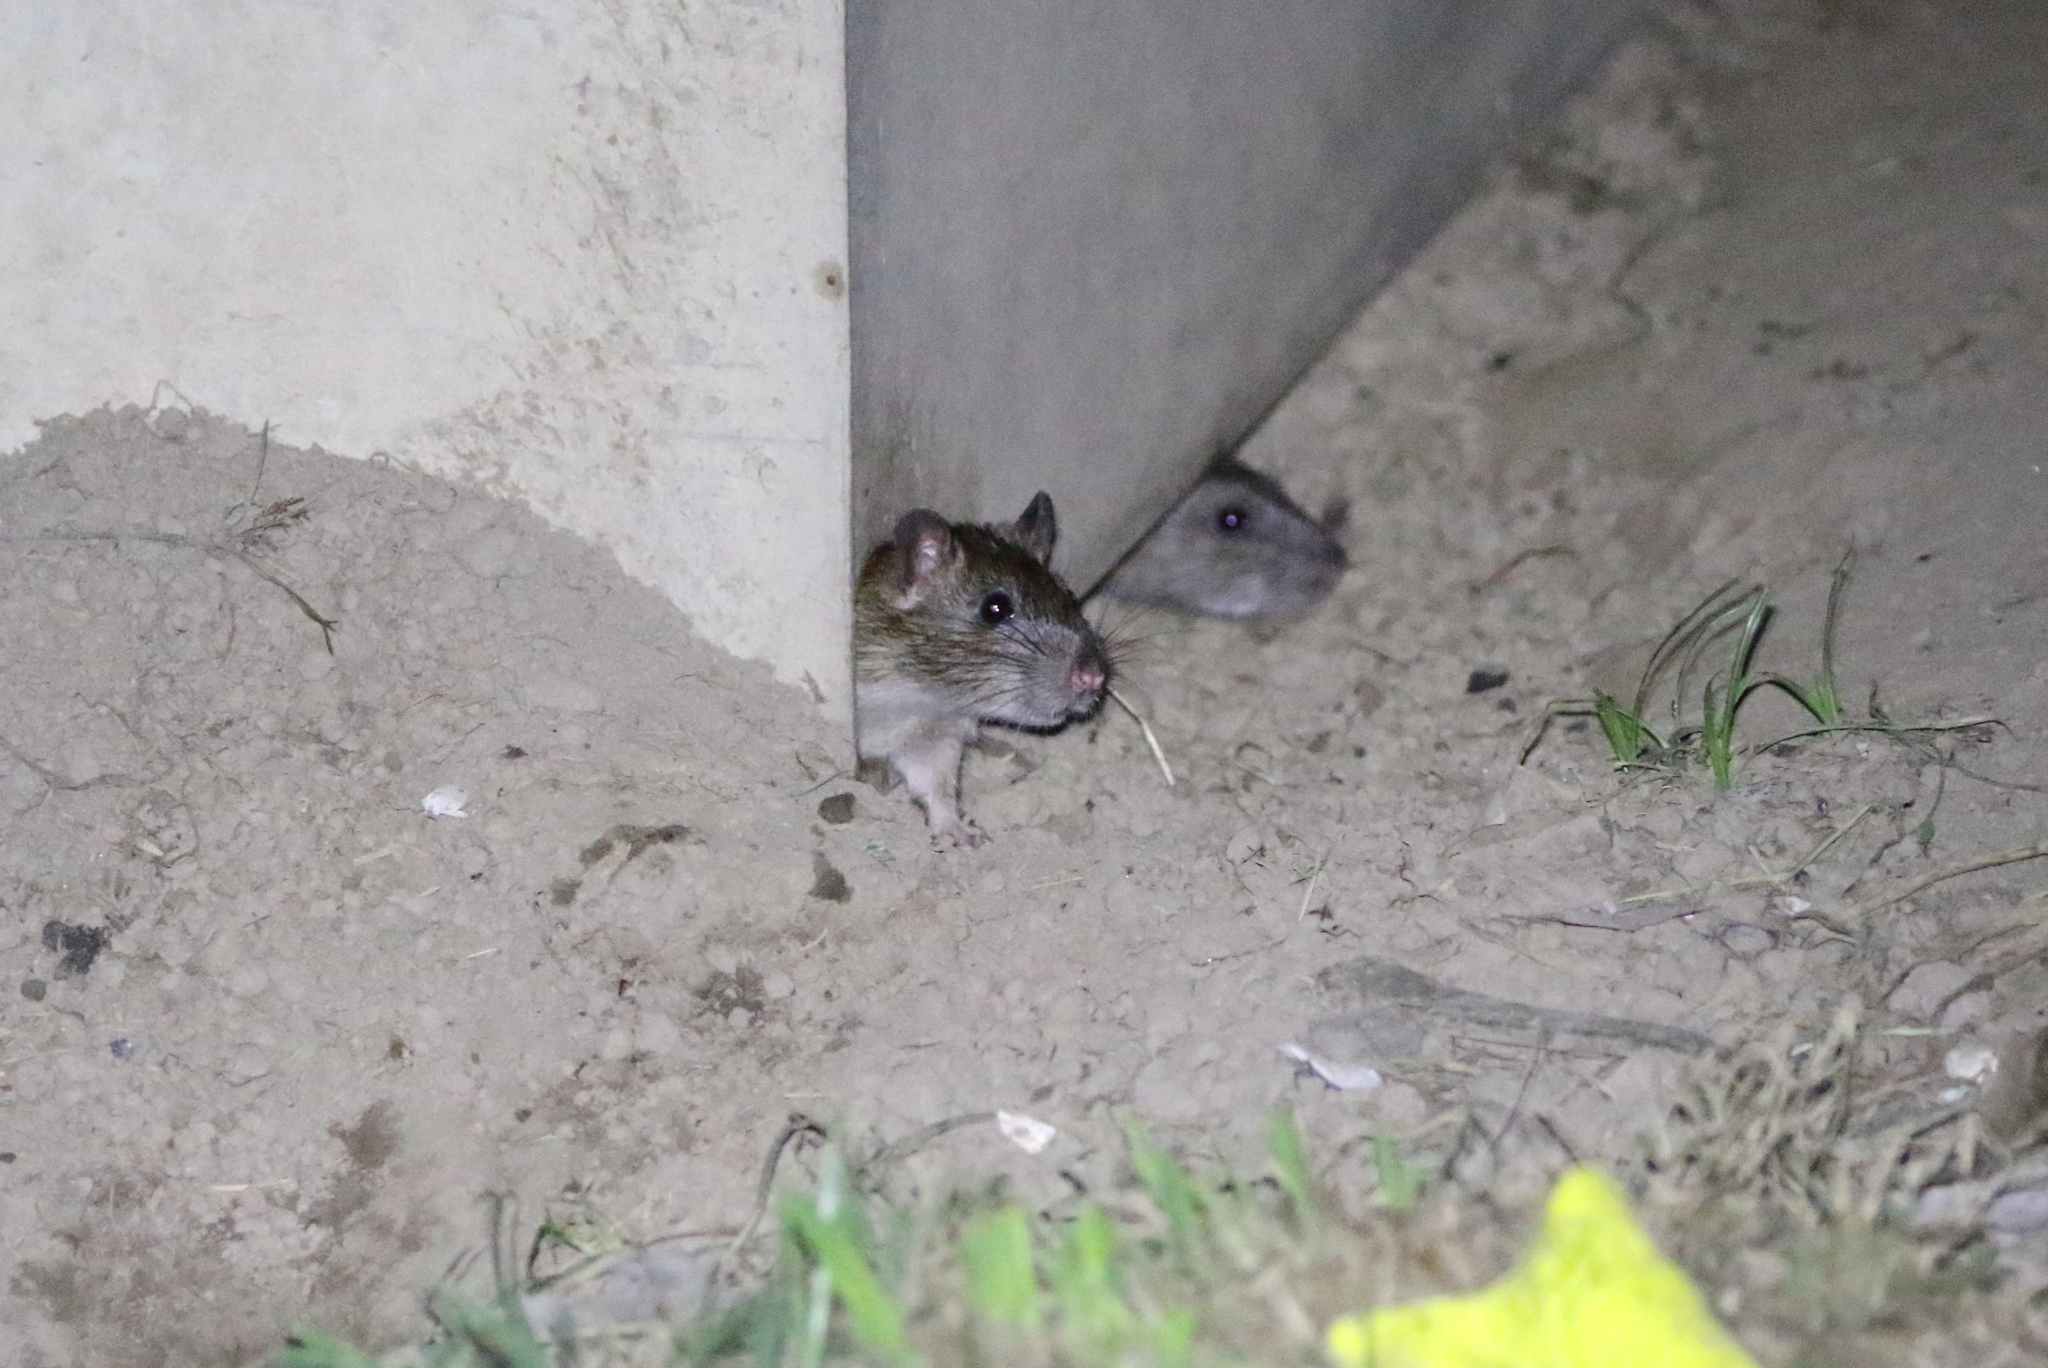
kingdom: Animalia
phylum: Chordata
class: Mammalia
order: Rodentia
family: Muridae
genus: Rattus
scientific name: Rattus norvegicus
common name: Brown rat
